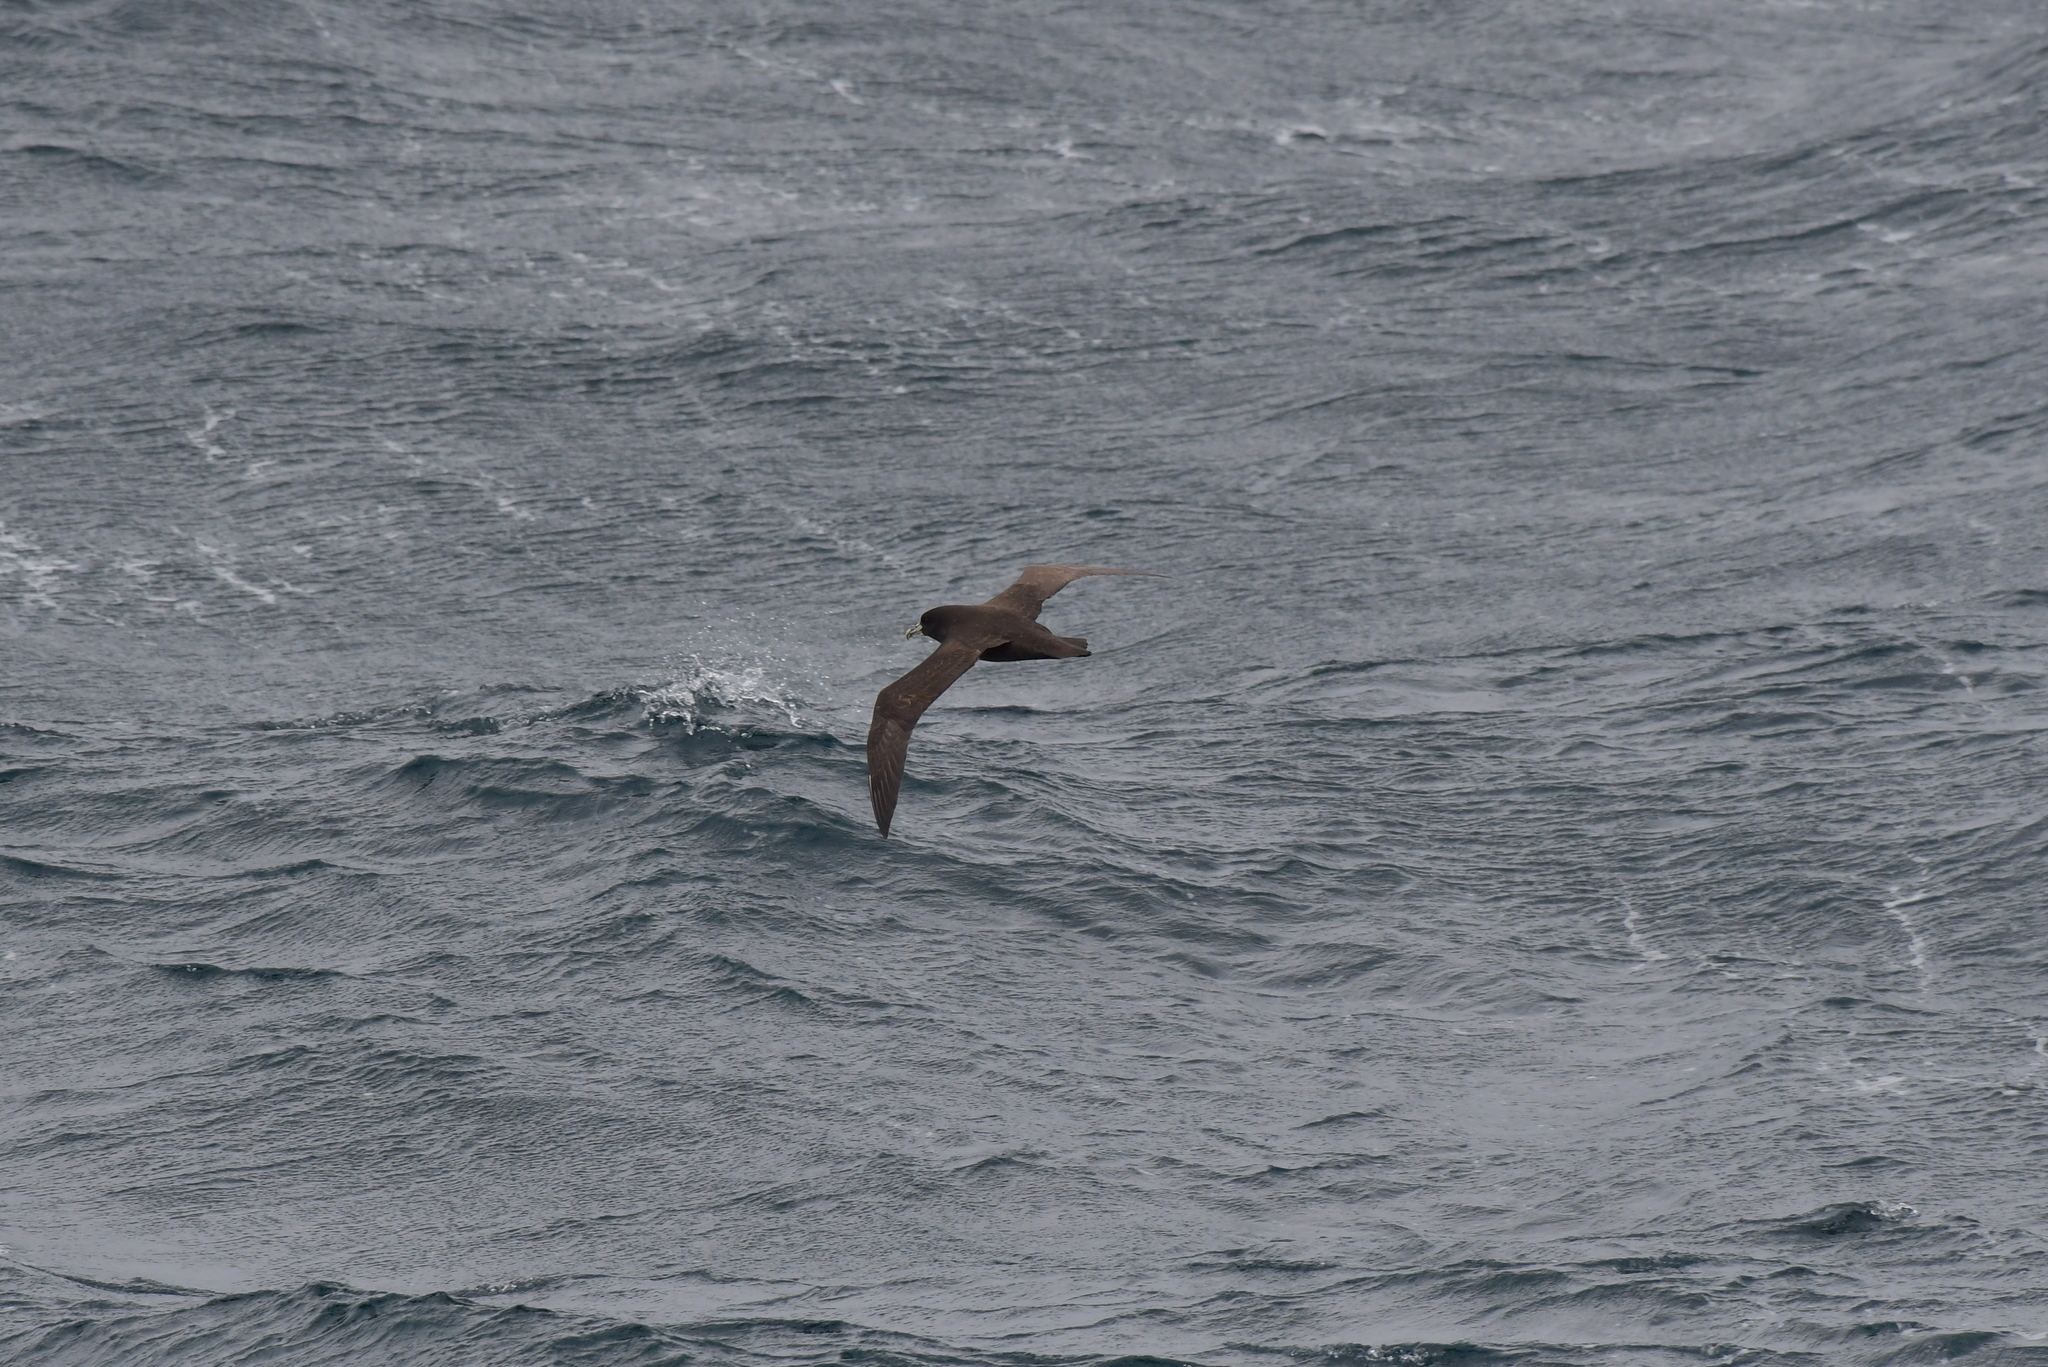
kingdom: Animalia
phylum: Chordata
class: Aves
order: Procellariiformes
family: Procellariidae
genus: Procellaria
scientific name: Procellaria aequinoctialis
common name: White-chinned petrel
